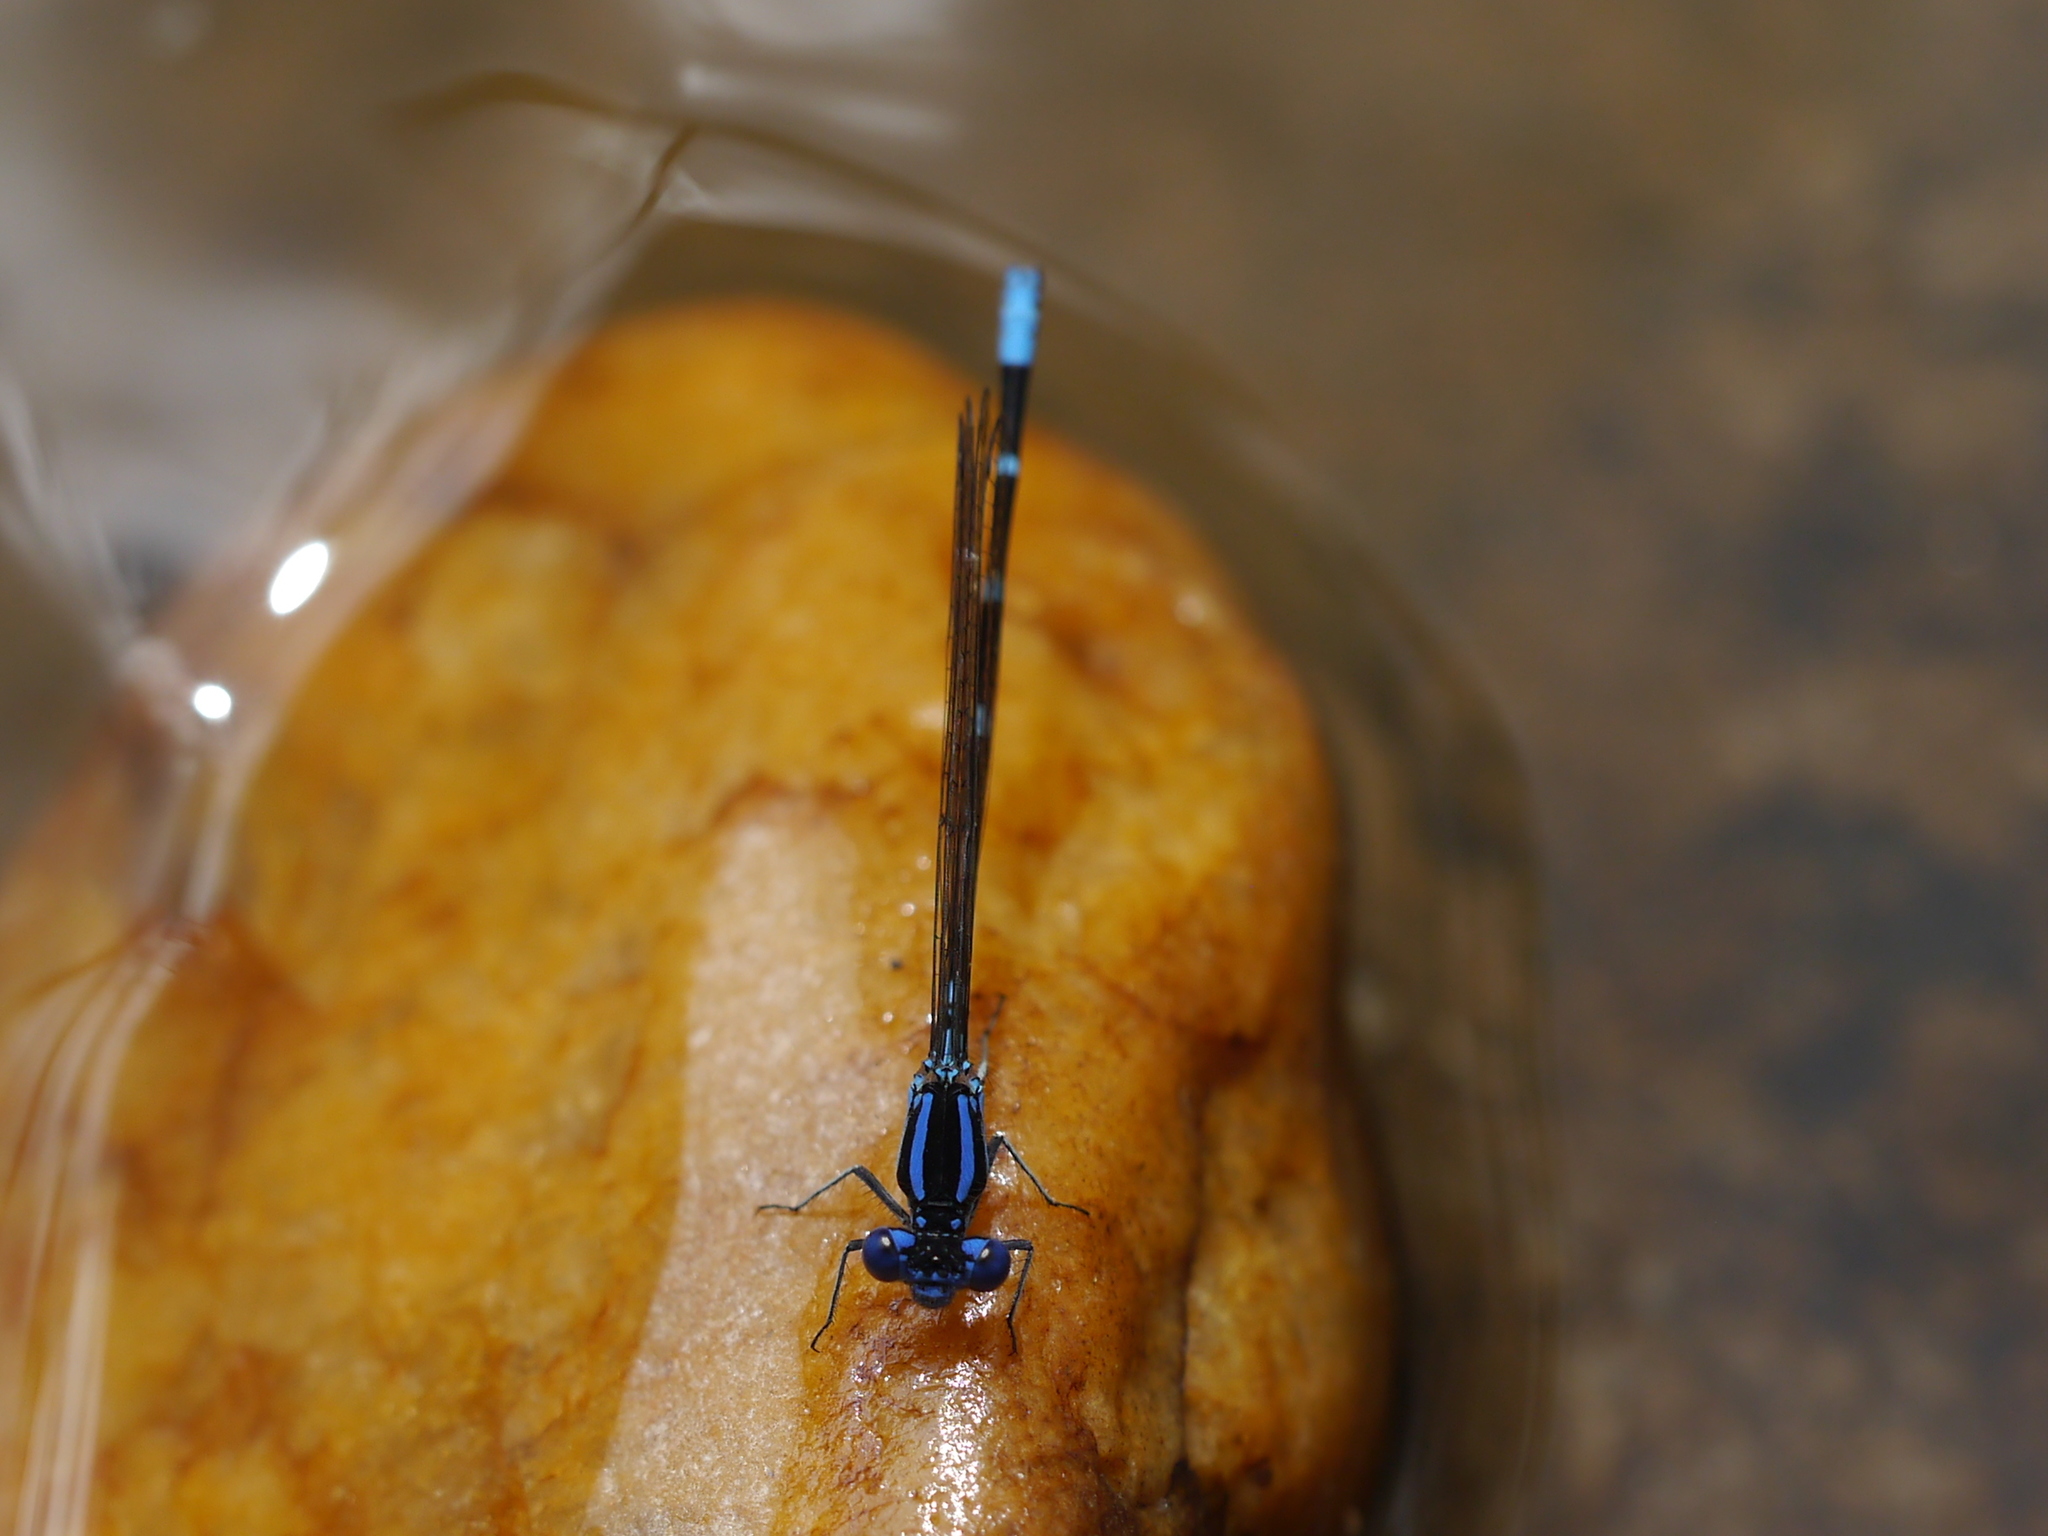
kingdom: Animalia
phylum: Arthropoda
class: Insecta
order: Odonata
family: Coenagrionidae
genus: Argia
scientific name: Argia sedula
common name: Blue-ringed dancer
